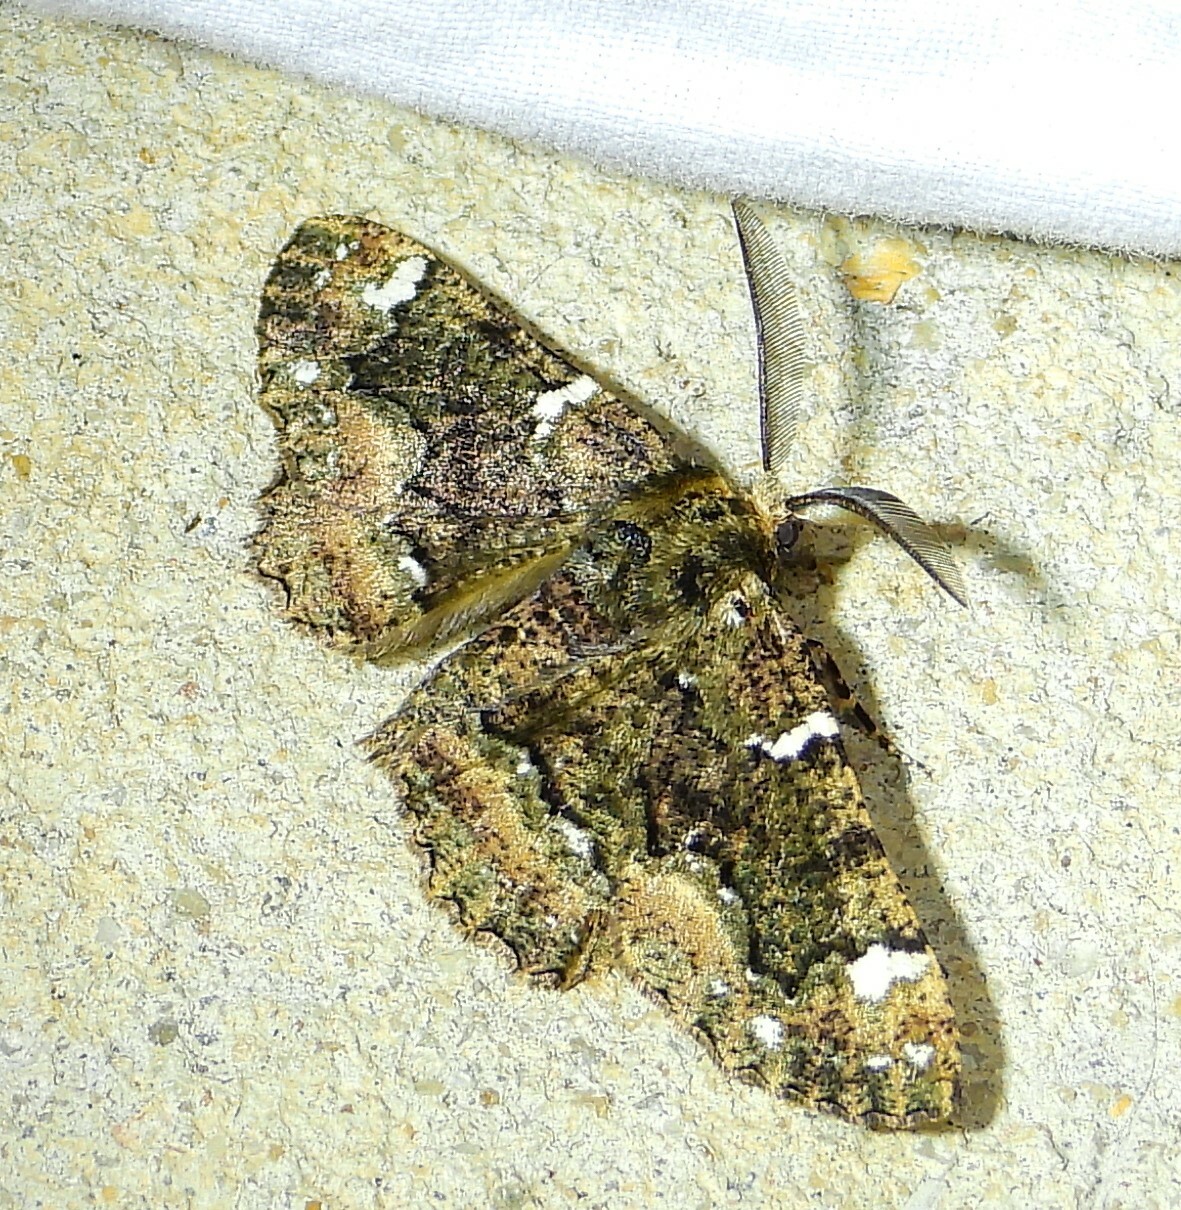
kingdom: Animalia
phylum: Arthropoda
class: Insecta
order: Lepidoptera
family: Geometridae
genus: Phaeoura
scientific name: Phaeoura quernaria
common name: Oak beauty
